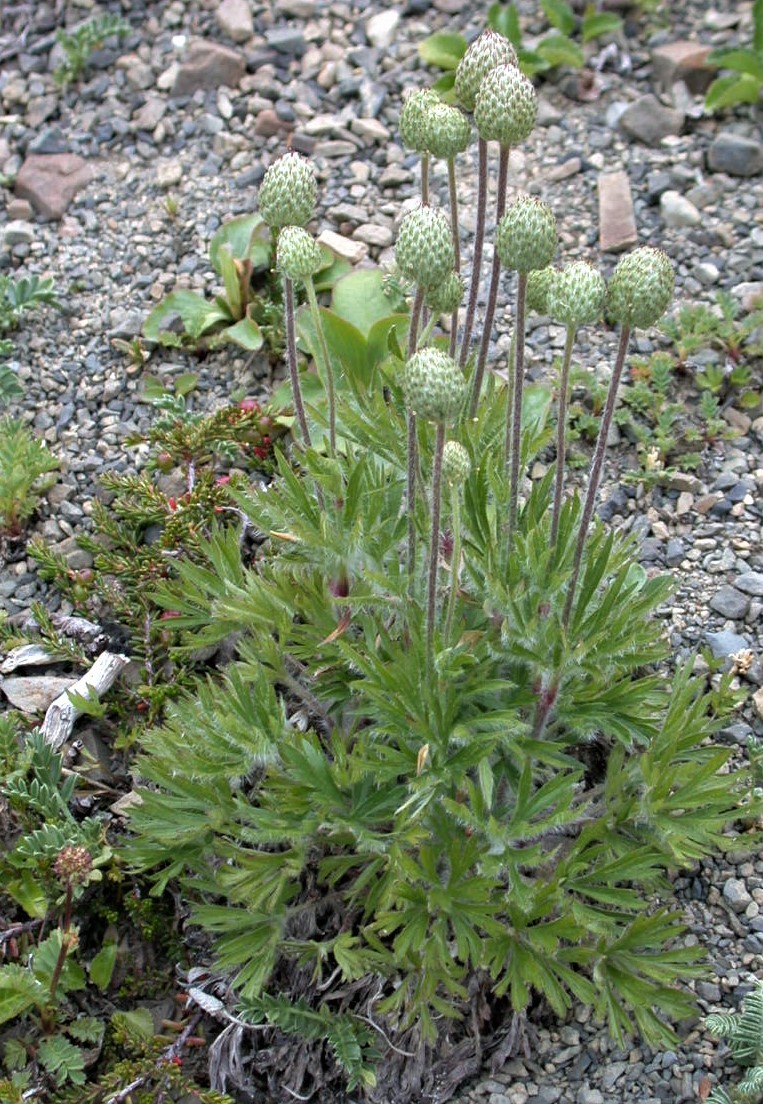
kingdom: Plantae
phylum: Tracheophyta
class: Magnoliopsida
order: Ranunculales
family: Ranunculaceae
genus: Anemone
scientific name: Anemone multifida
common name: Bird's-foot anemone
